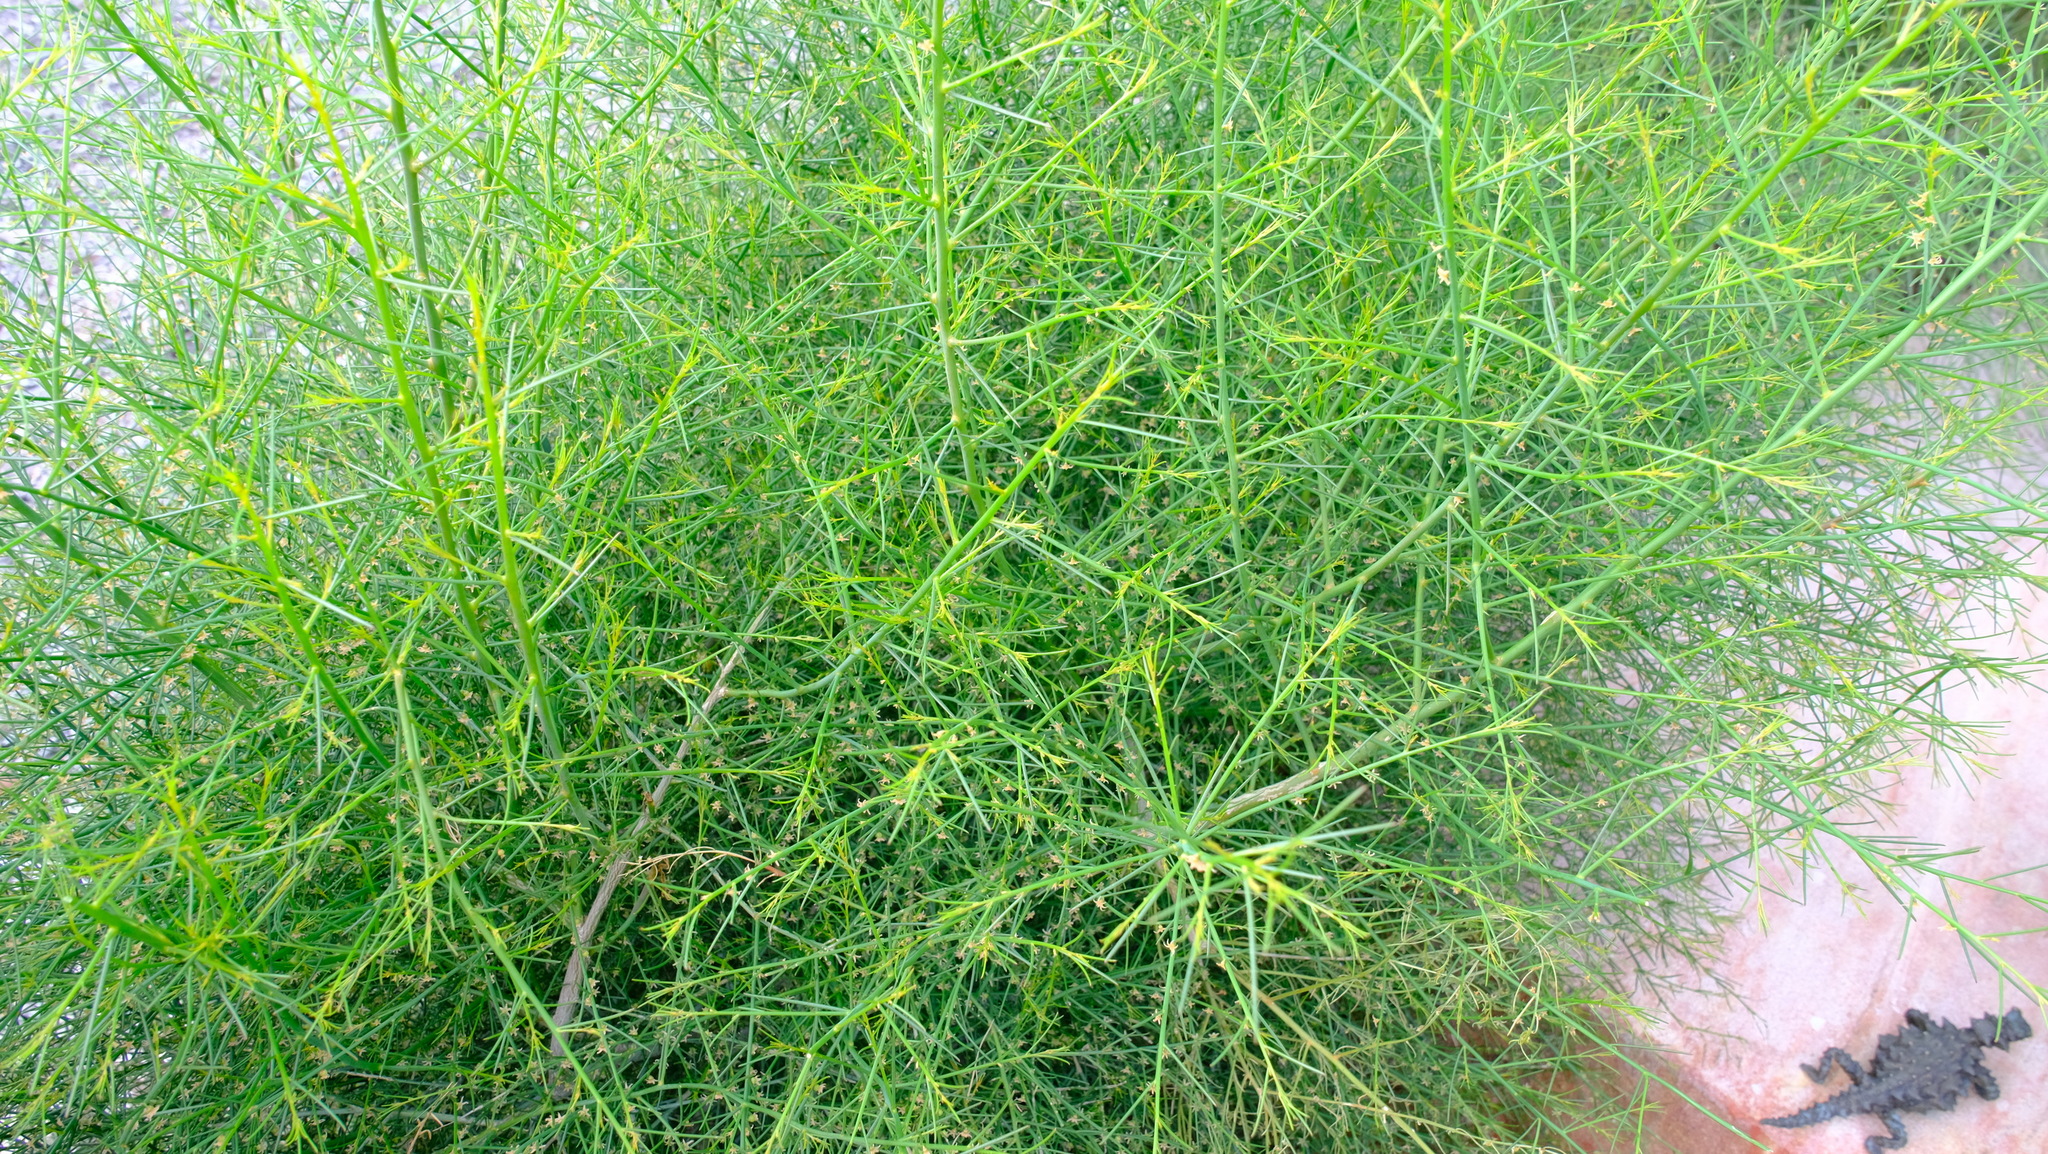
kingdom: Plantae
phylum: Tracheophyta
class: Magnoliopsida
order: Brassicales
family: Gyrostemonaceae
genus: Gyrostemon
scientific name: Gyrostemon subnudus
